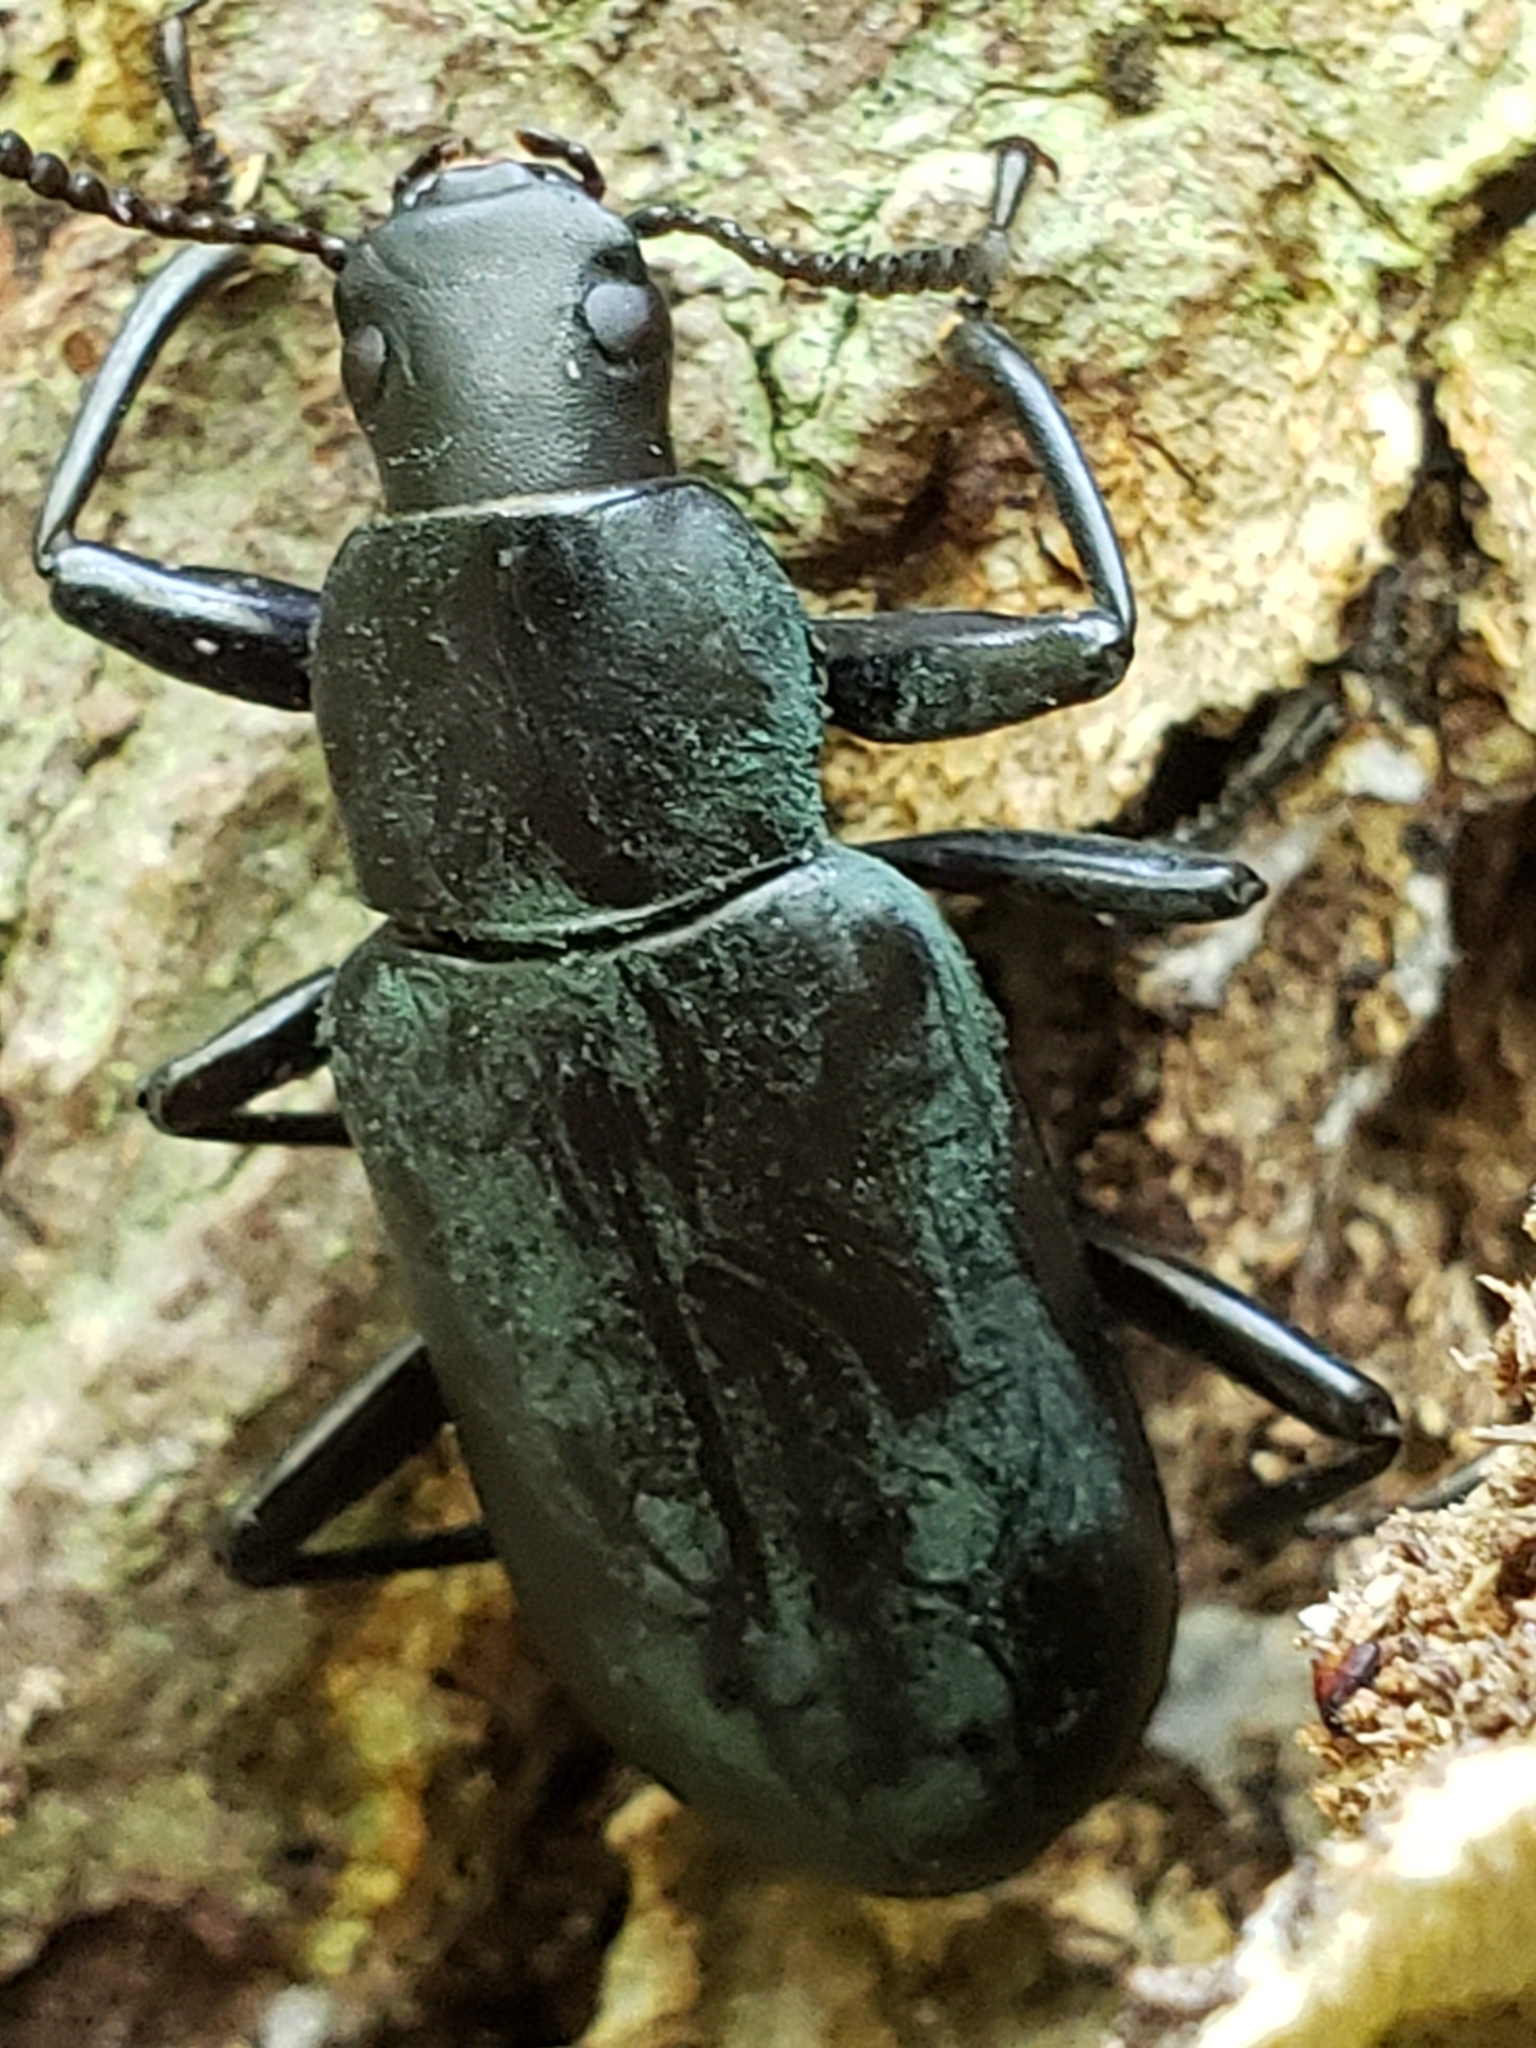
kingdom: Animalia
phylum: Arthropoda
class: Insecta
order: Coleoptera
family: Tenebrionidae
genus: Alobates
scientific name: Alobates
